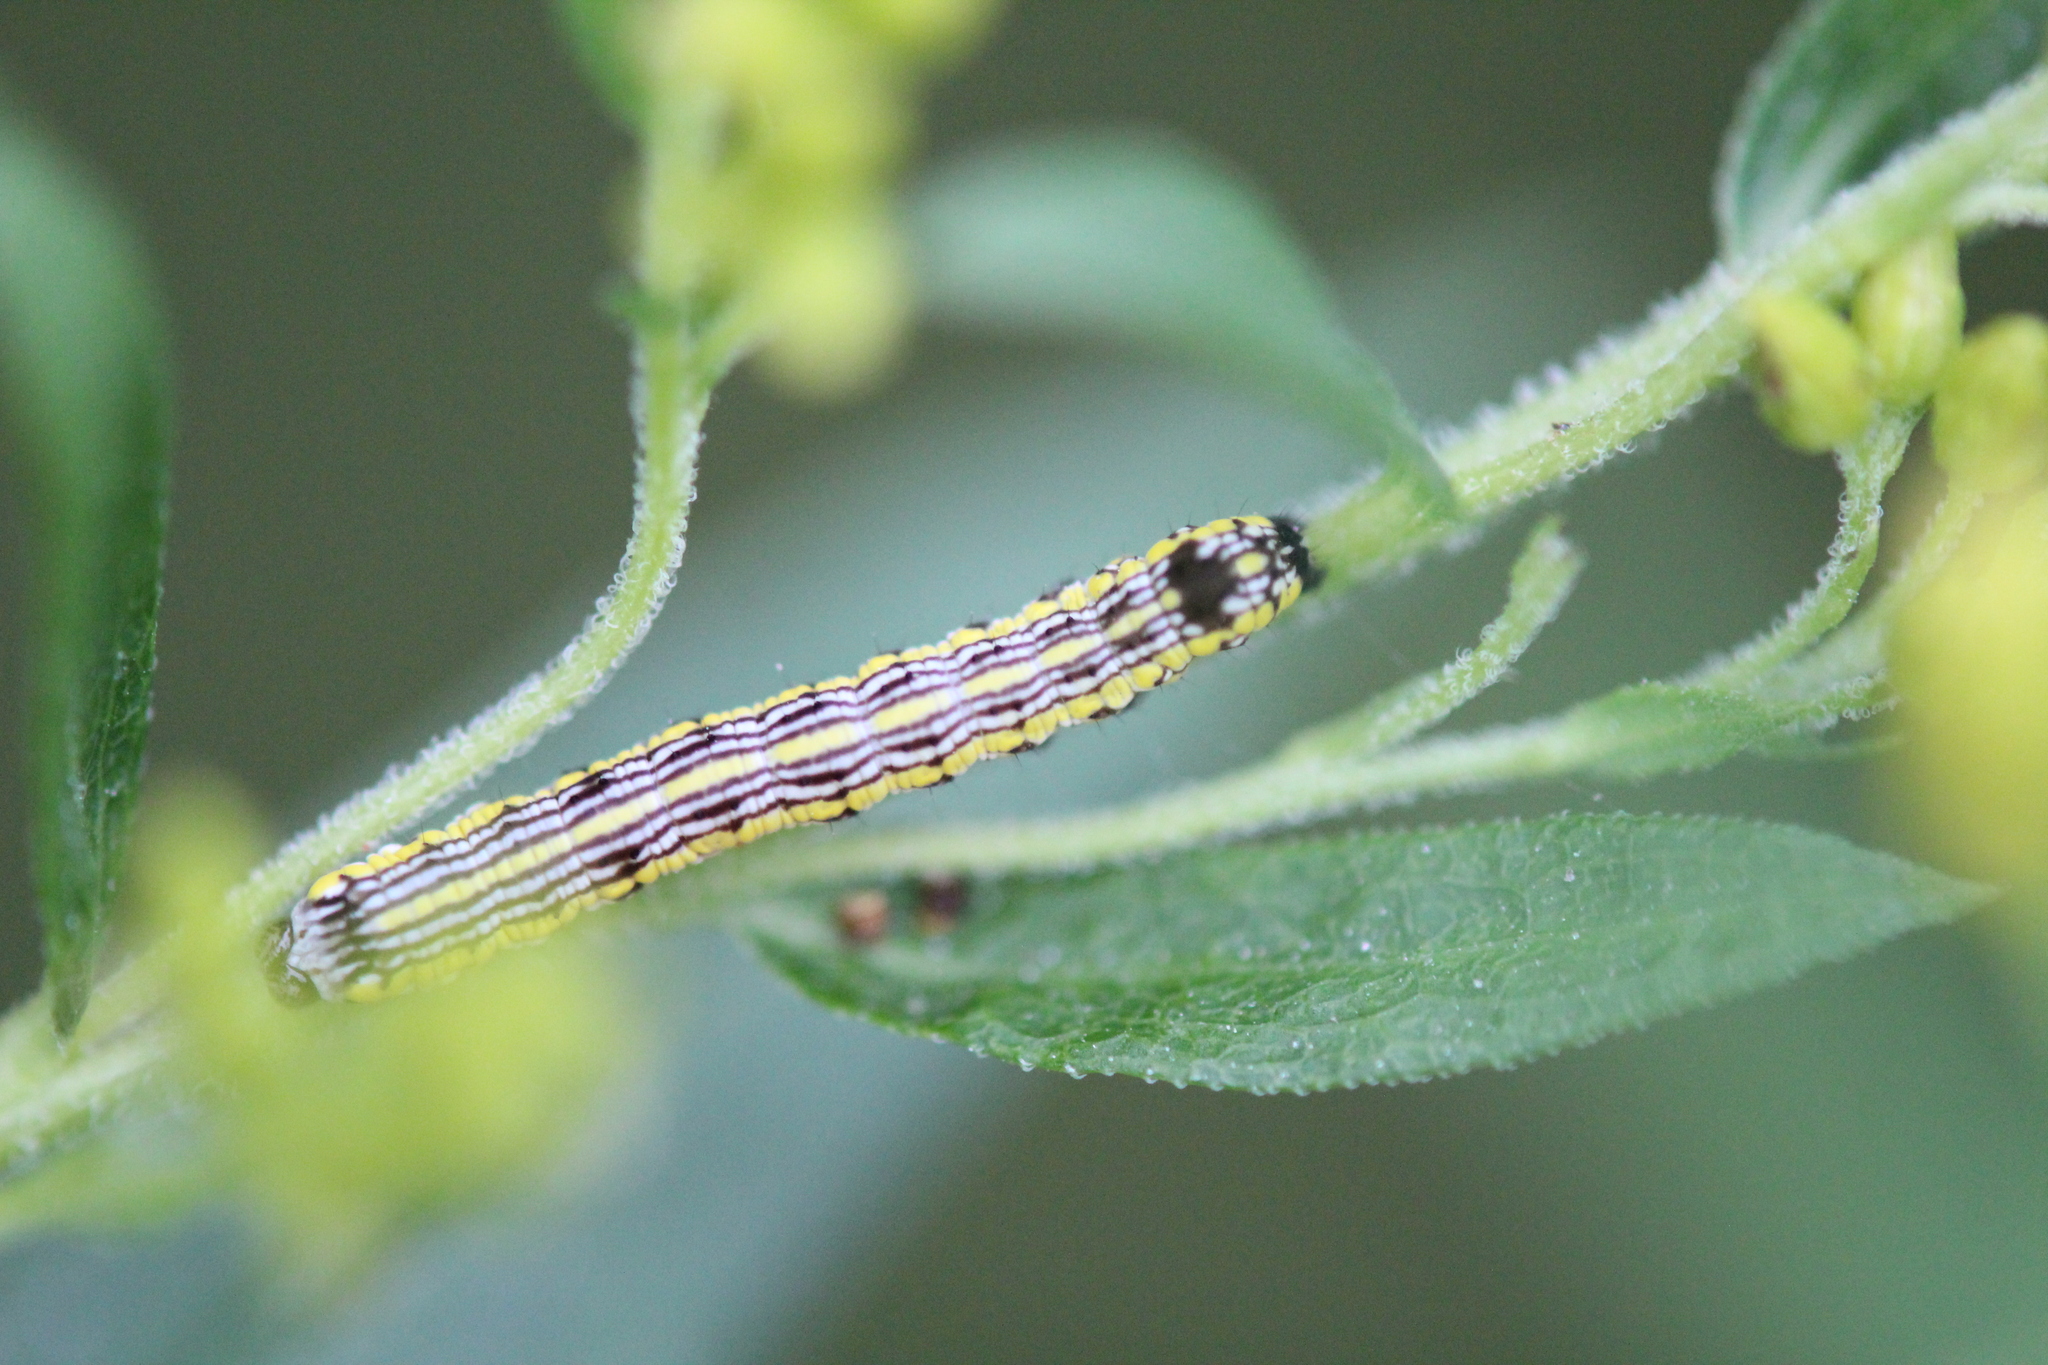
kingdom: Animalia
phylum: Arthropoda
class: Insecta
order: Lepidoptera
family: Noctuidae
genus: Cucullia
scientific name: Cucullia convexipennis
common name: Brown-hooded owlet
